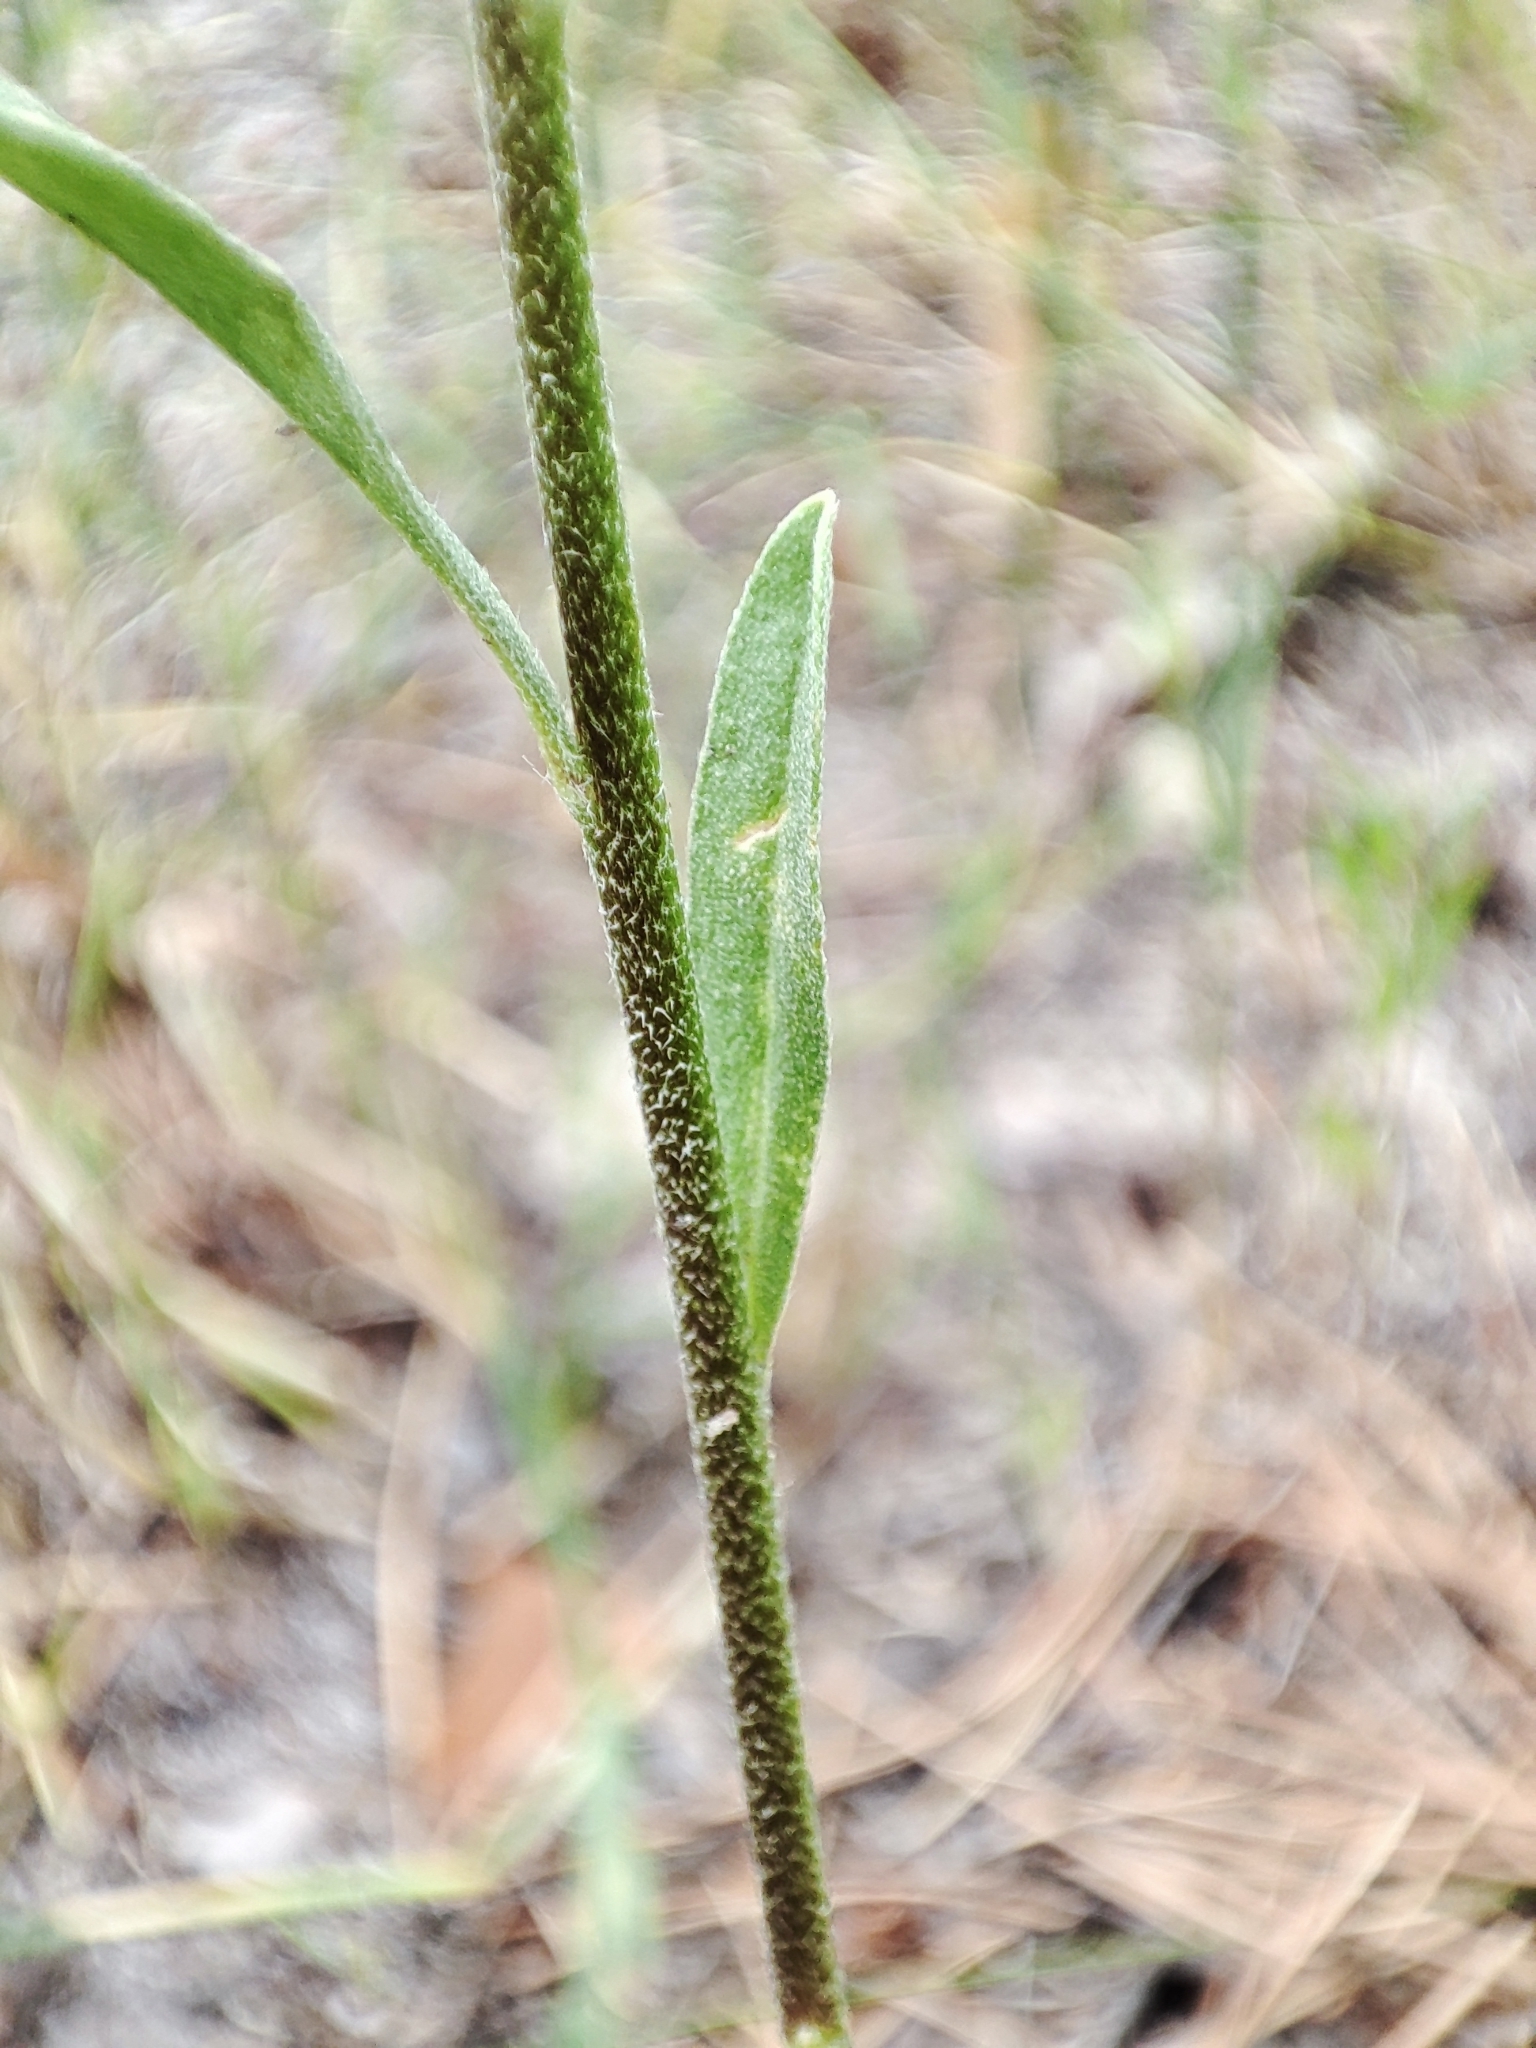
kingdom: Plantae
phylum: Tracheophyta
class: Magnoliopsida
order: Brassicales
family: Brassicaceae
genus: Berteroa
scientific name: Berteroa incana
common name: Hoary alison
